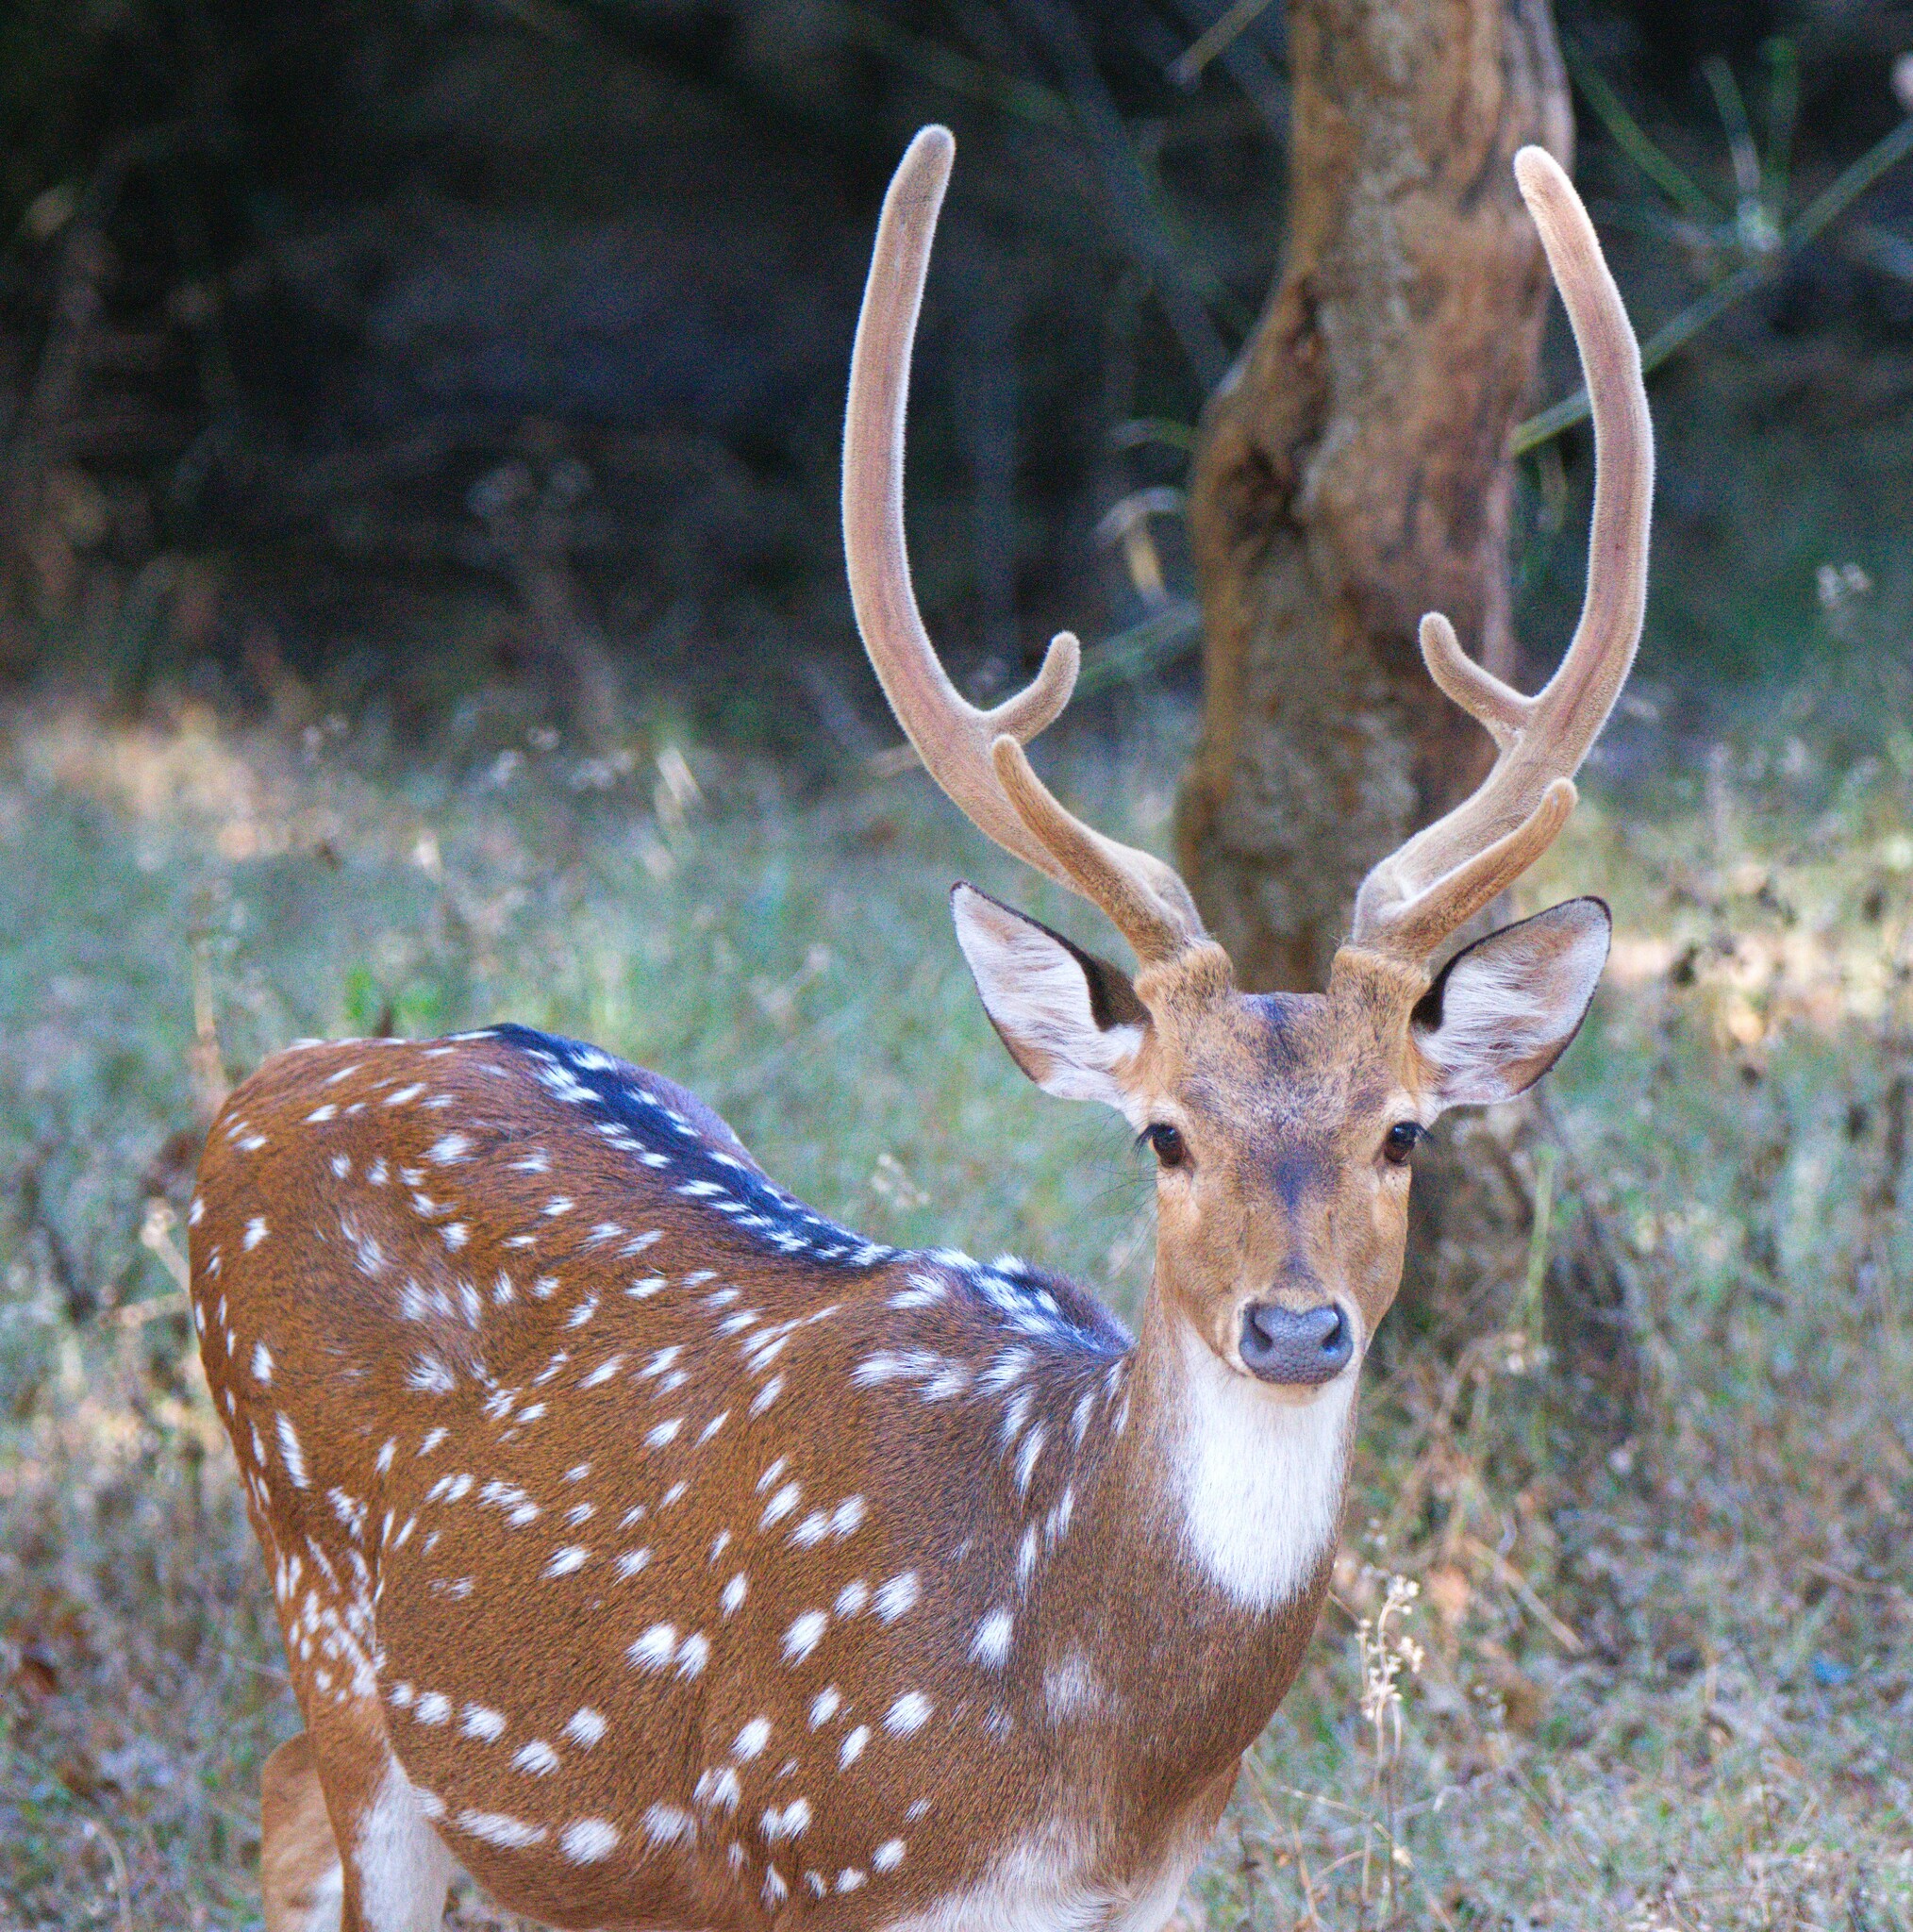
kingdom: Animalia
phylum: Chordata
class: Mammalia
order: Artiodactyla
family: Cervidae
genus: Axis
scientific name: Axis axis
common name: Chital
